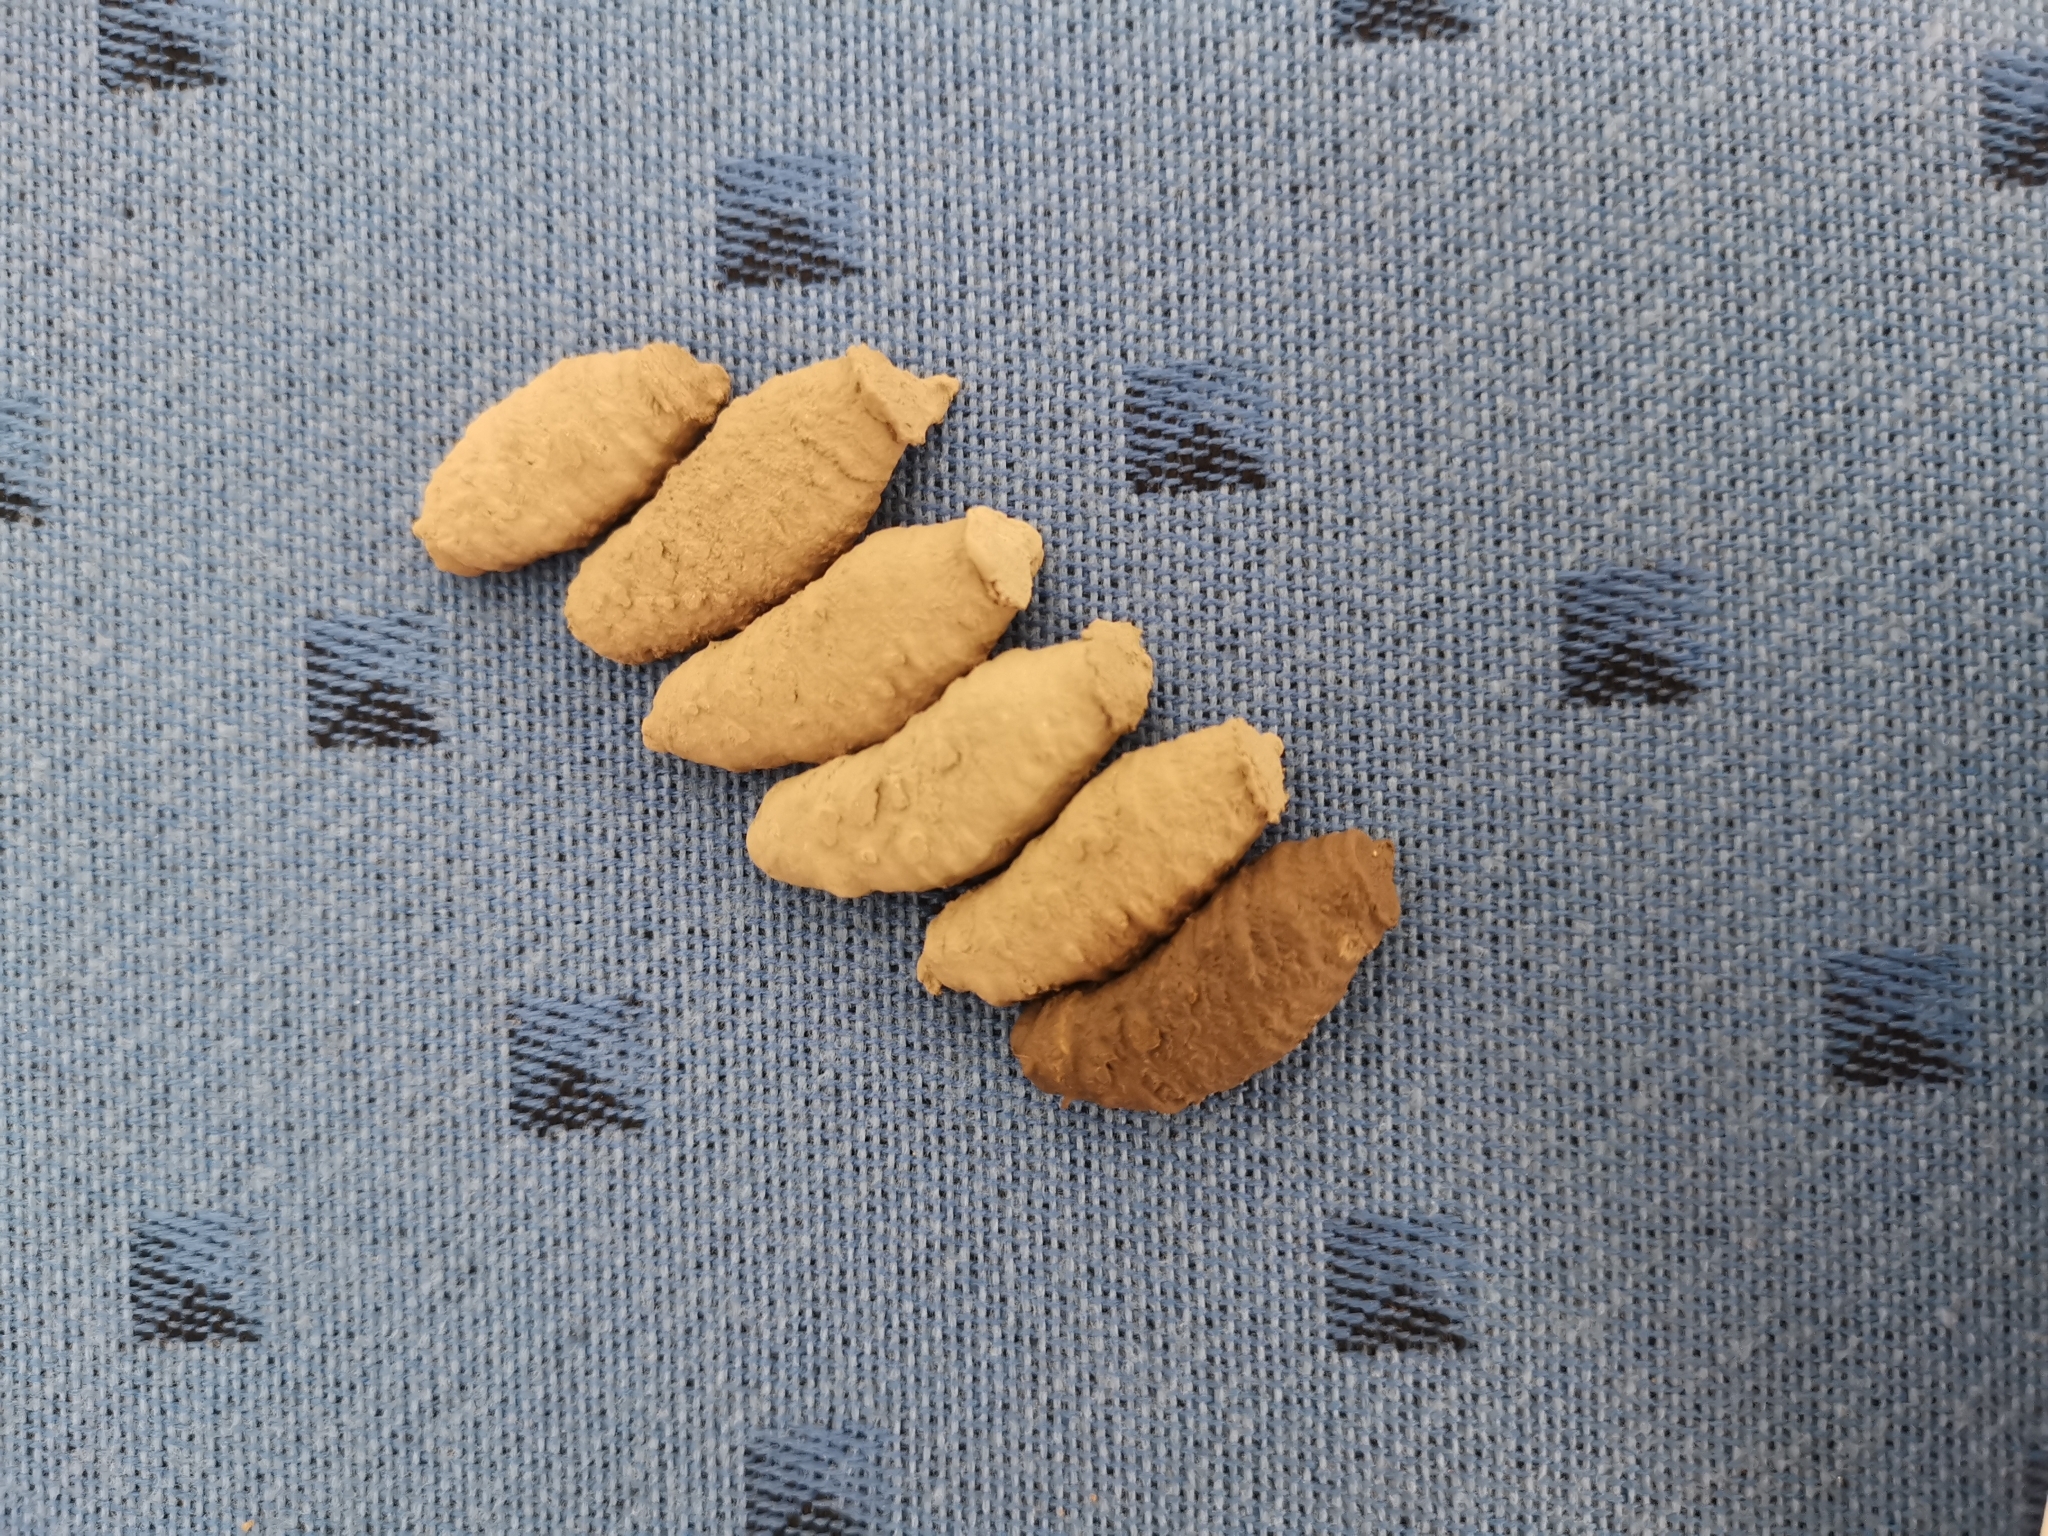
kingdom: Animalia
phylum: Arthropoda
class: Insecta
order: Hymenoptera
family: Sphecidae
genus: Sceliphron
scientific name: Sceliphron curvatum
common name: Pèlopèe
